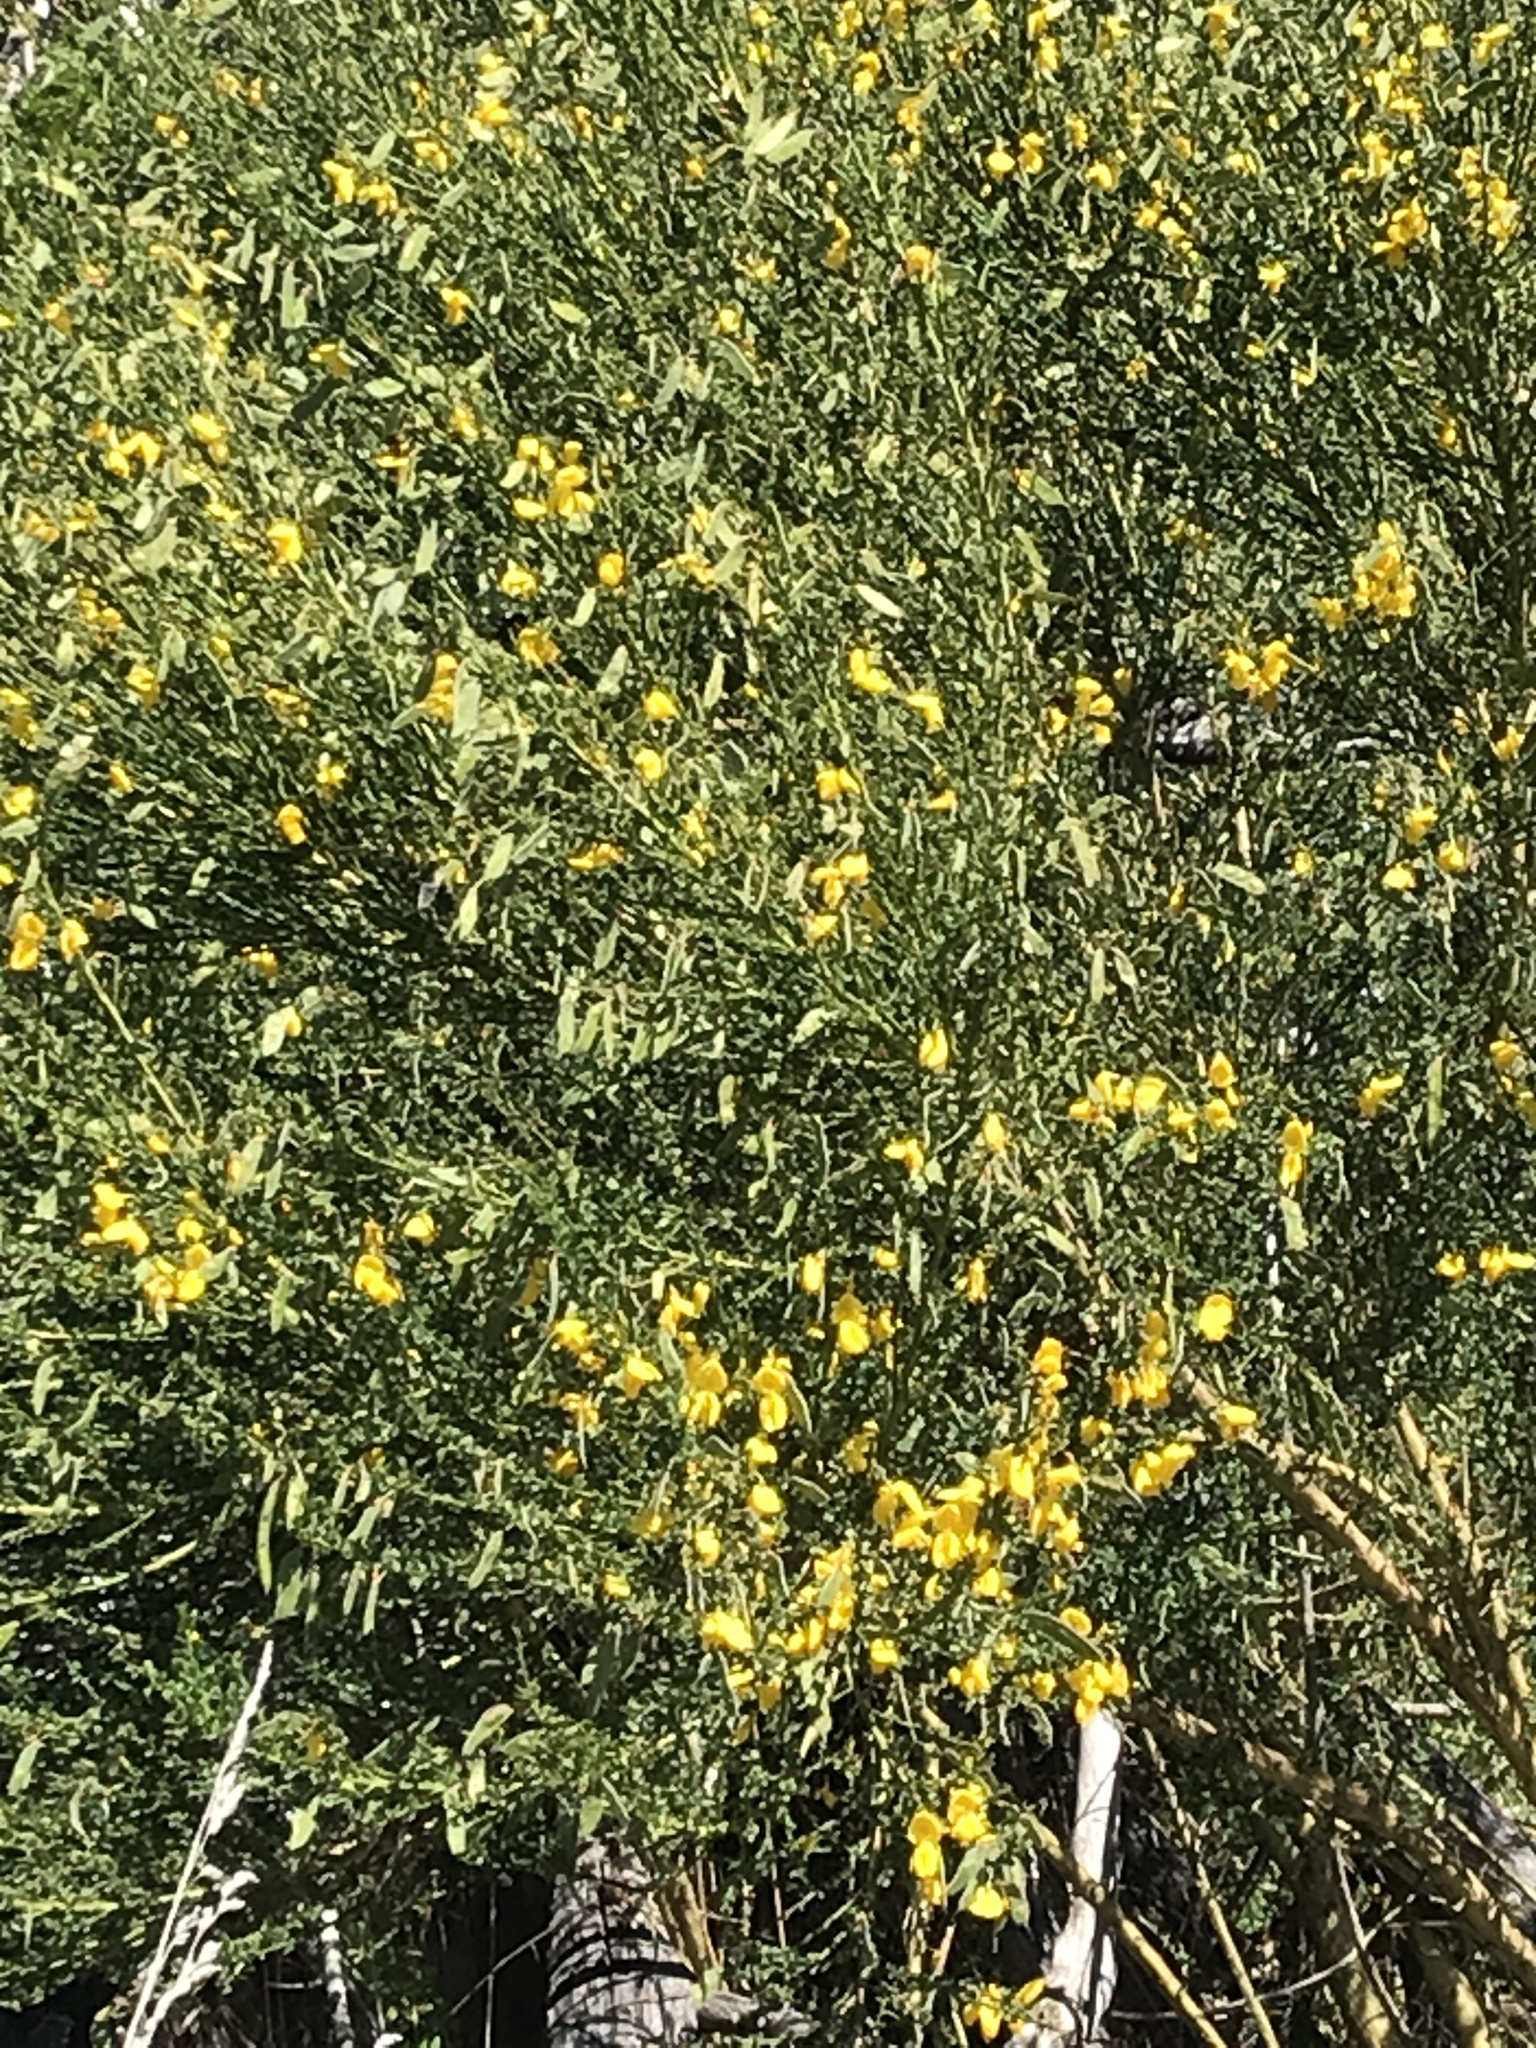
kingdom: Plantae
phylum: Tracheophyta
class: Magnoliopsida
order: Fabales
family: Fabaceae
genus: Cytisus
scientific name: Cytisus scoparius
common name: Scotch broom
